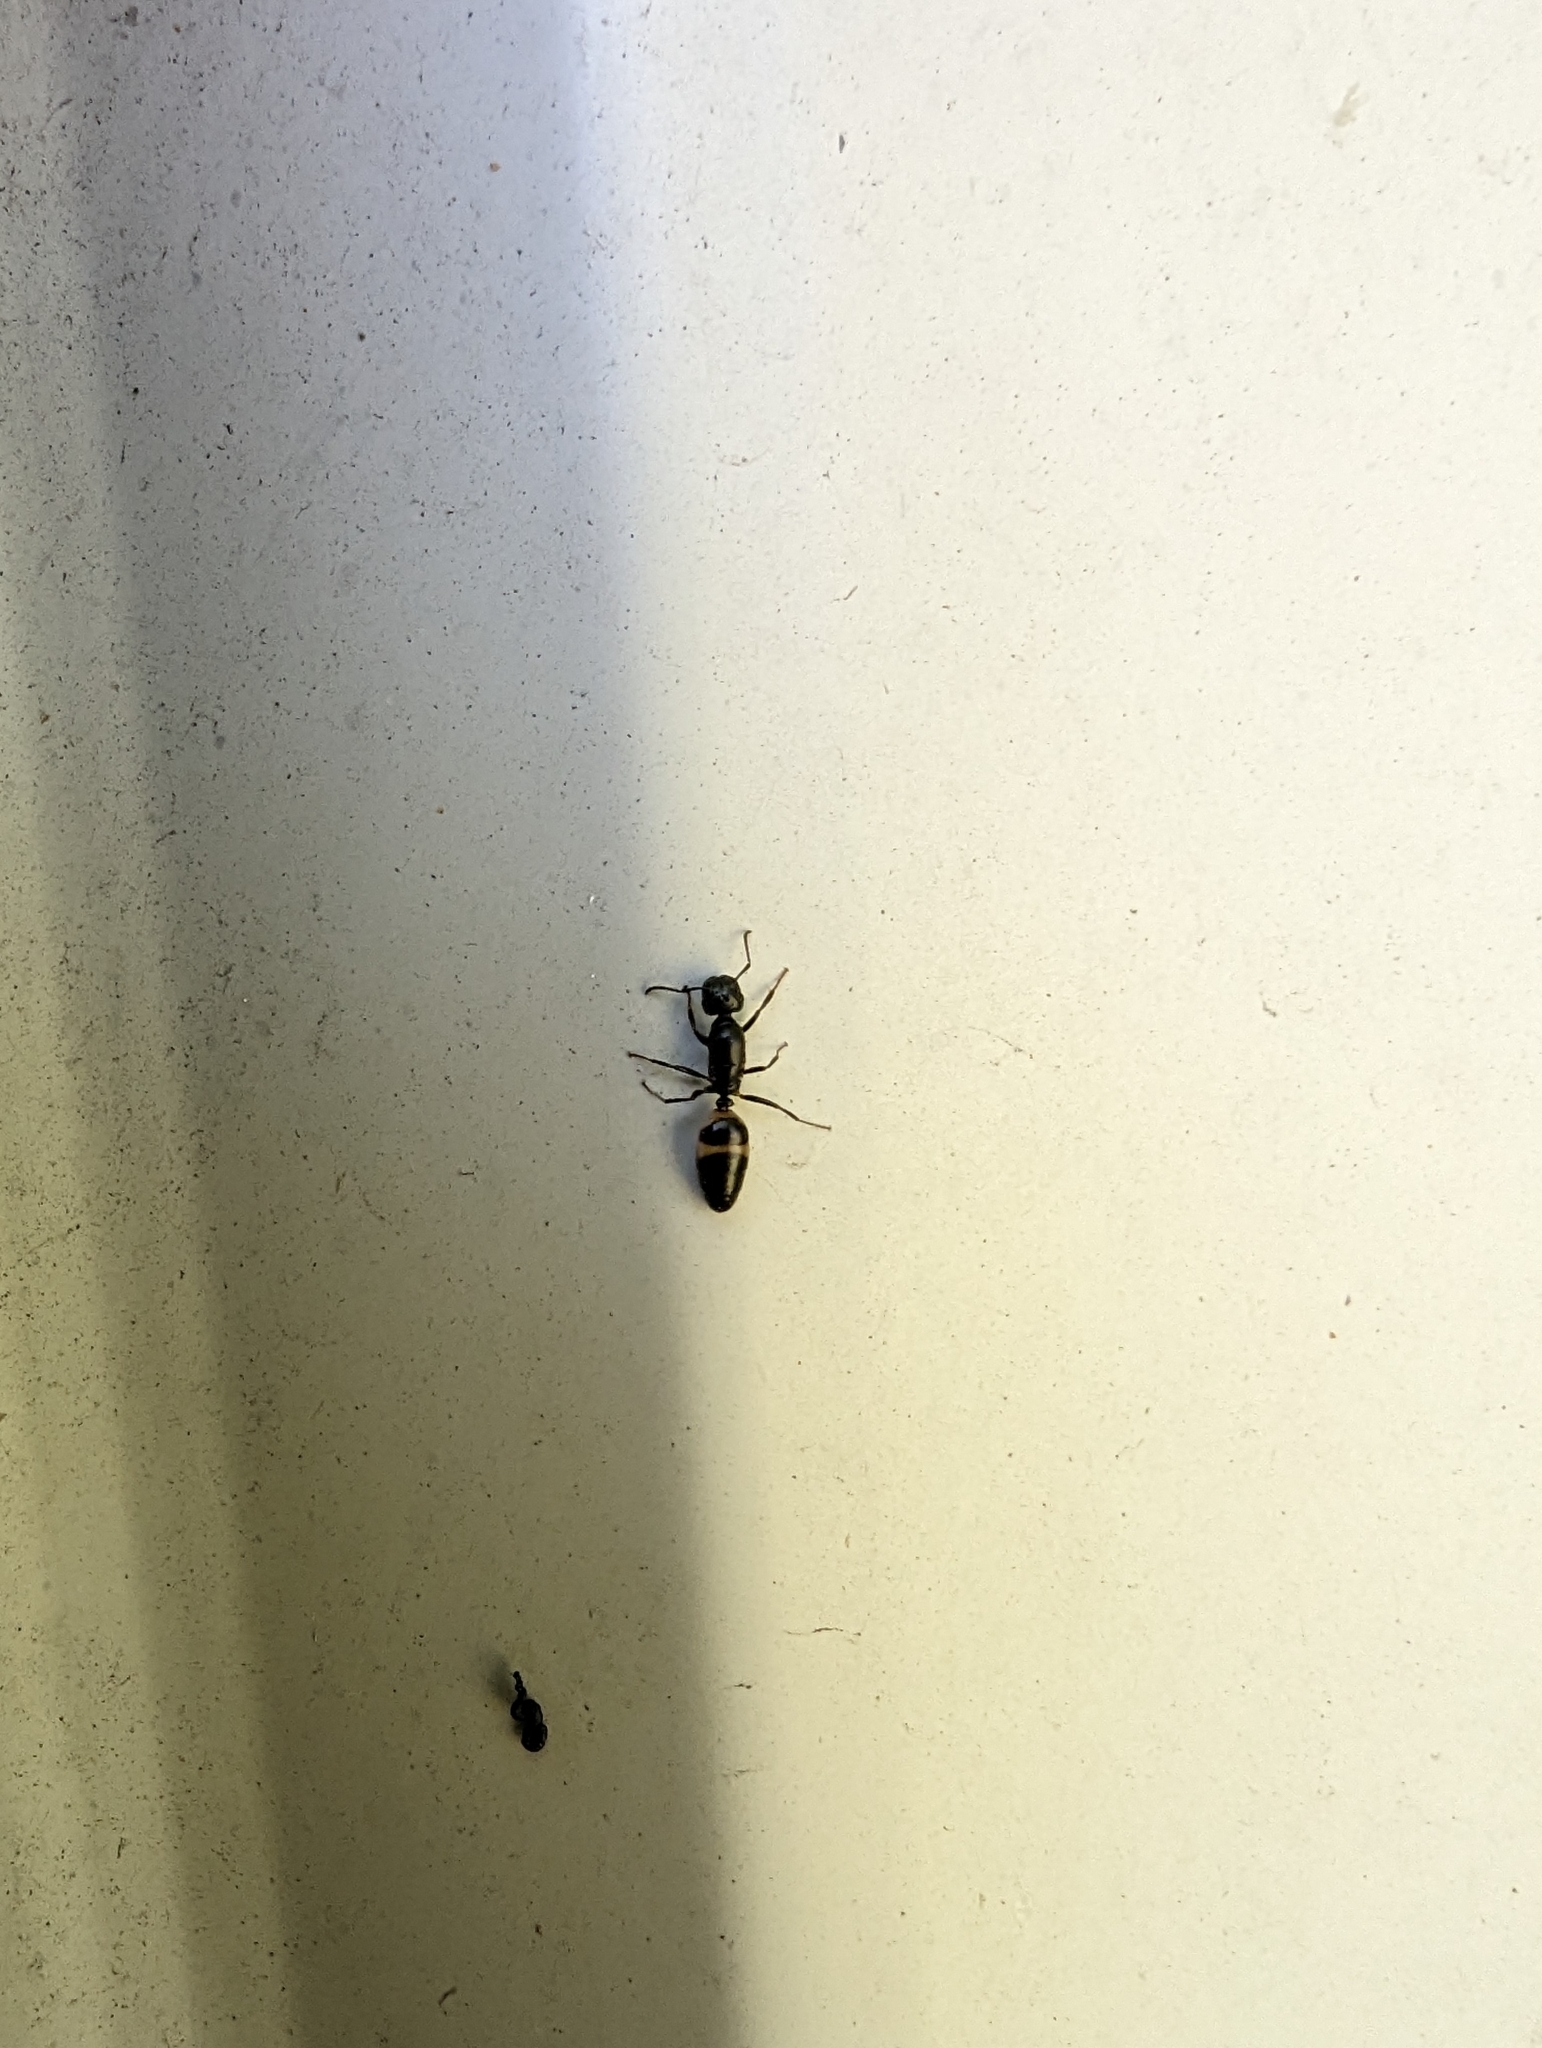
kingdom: Animalia
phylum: Arthropoda
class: Insecta
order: Hymenoptera
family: Formicidae
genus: Colobopsis
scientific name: Colobopsis gasseri
